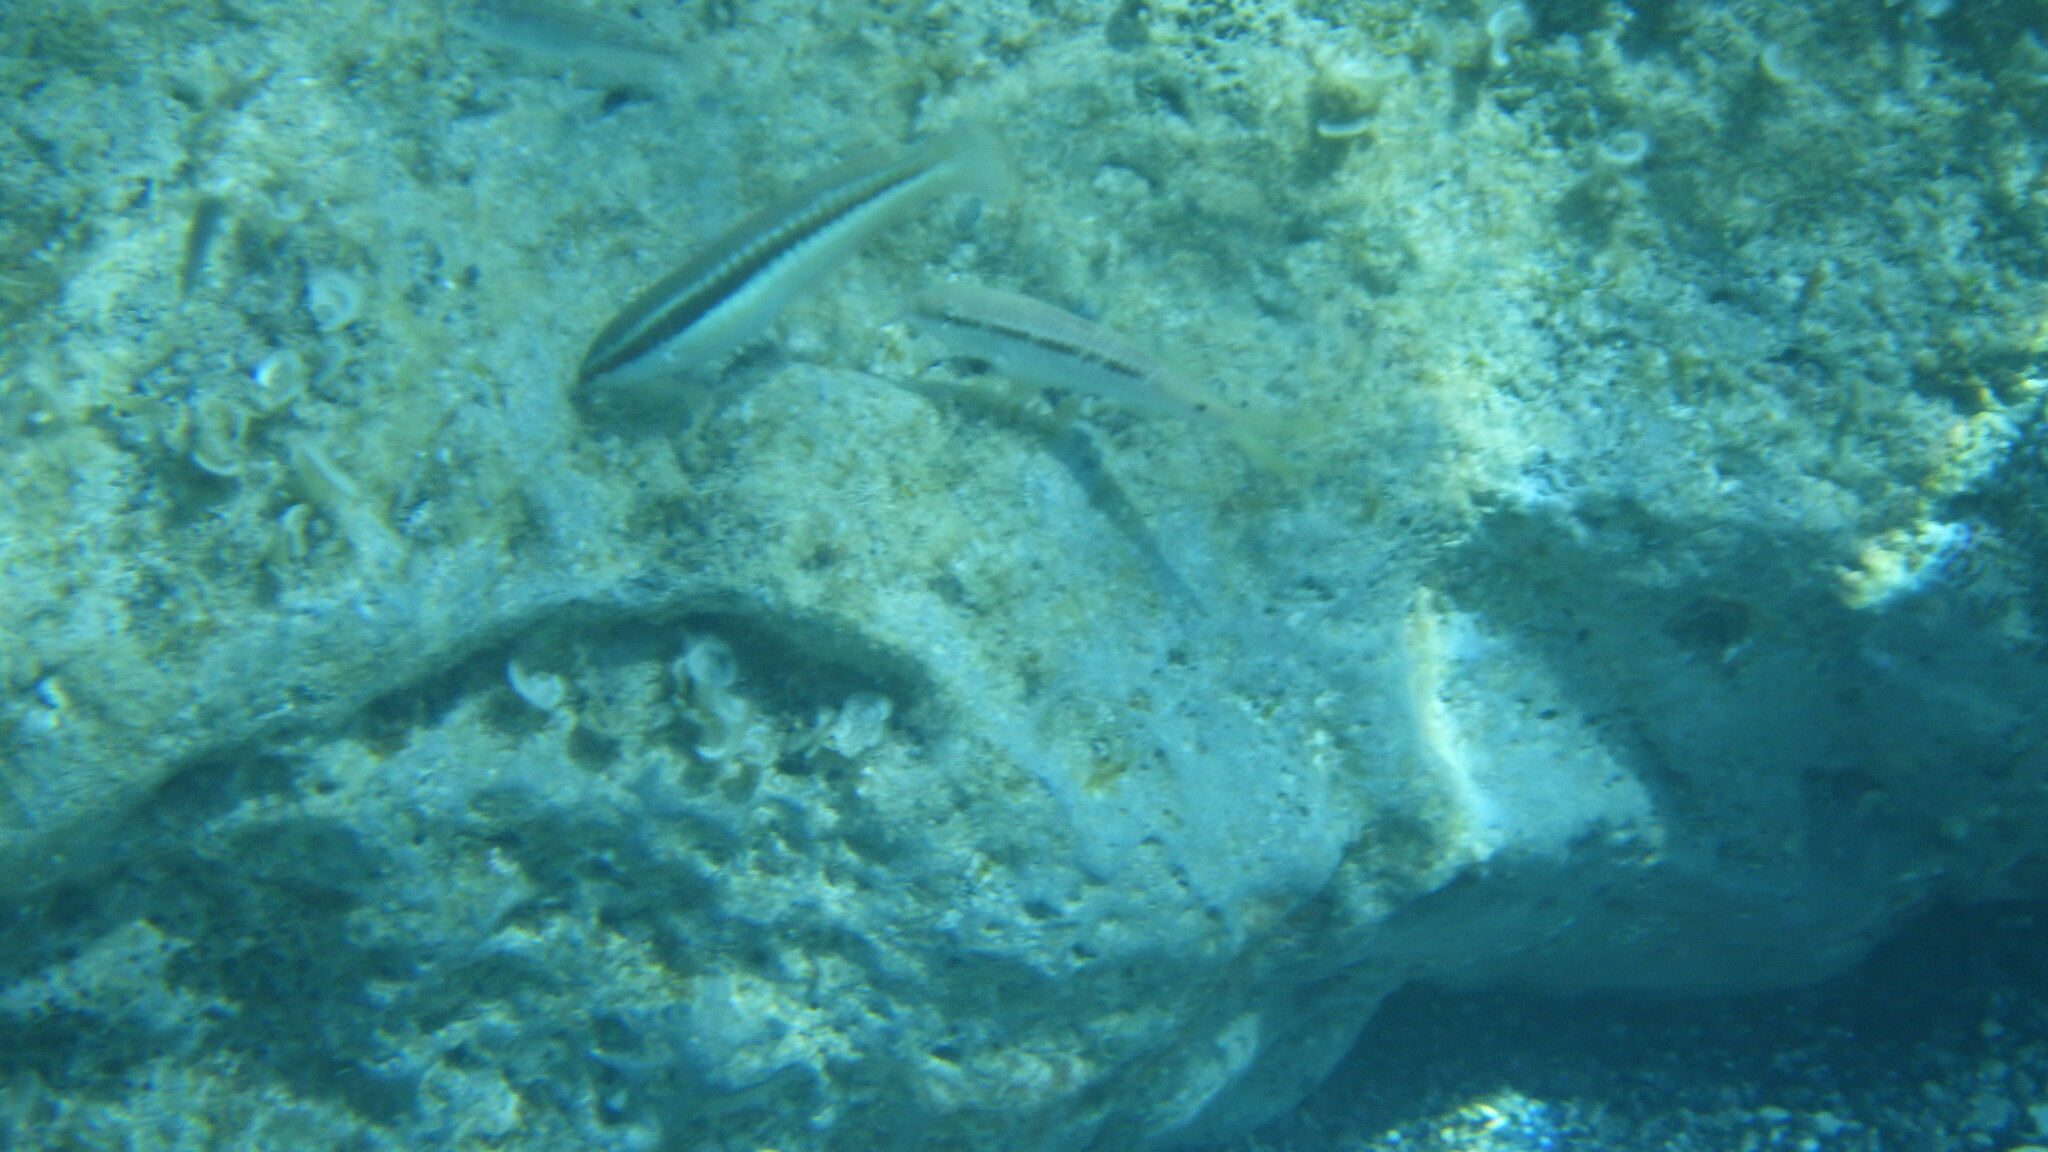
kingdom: Animalia
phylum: Chordata
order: Perciformes
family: Labridae
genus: Coris
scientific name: Coris julis
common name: Rainbow wrasse
